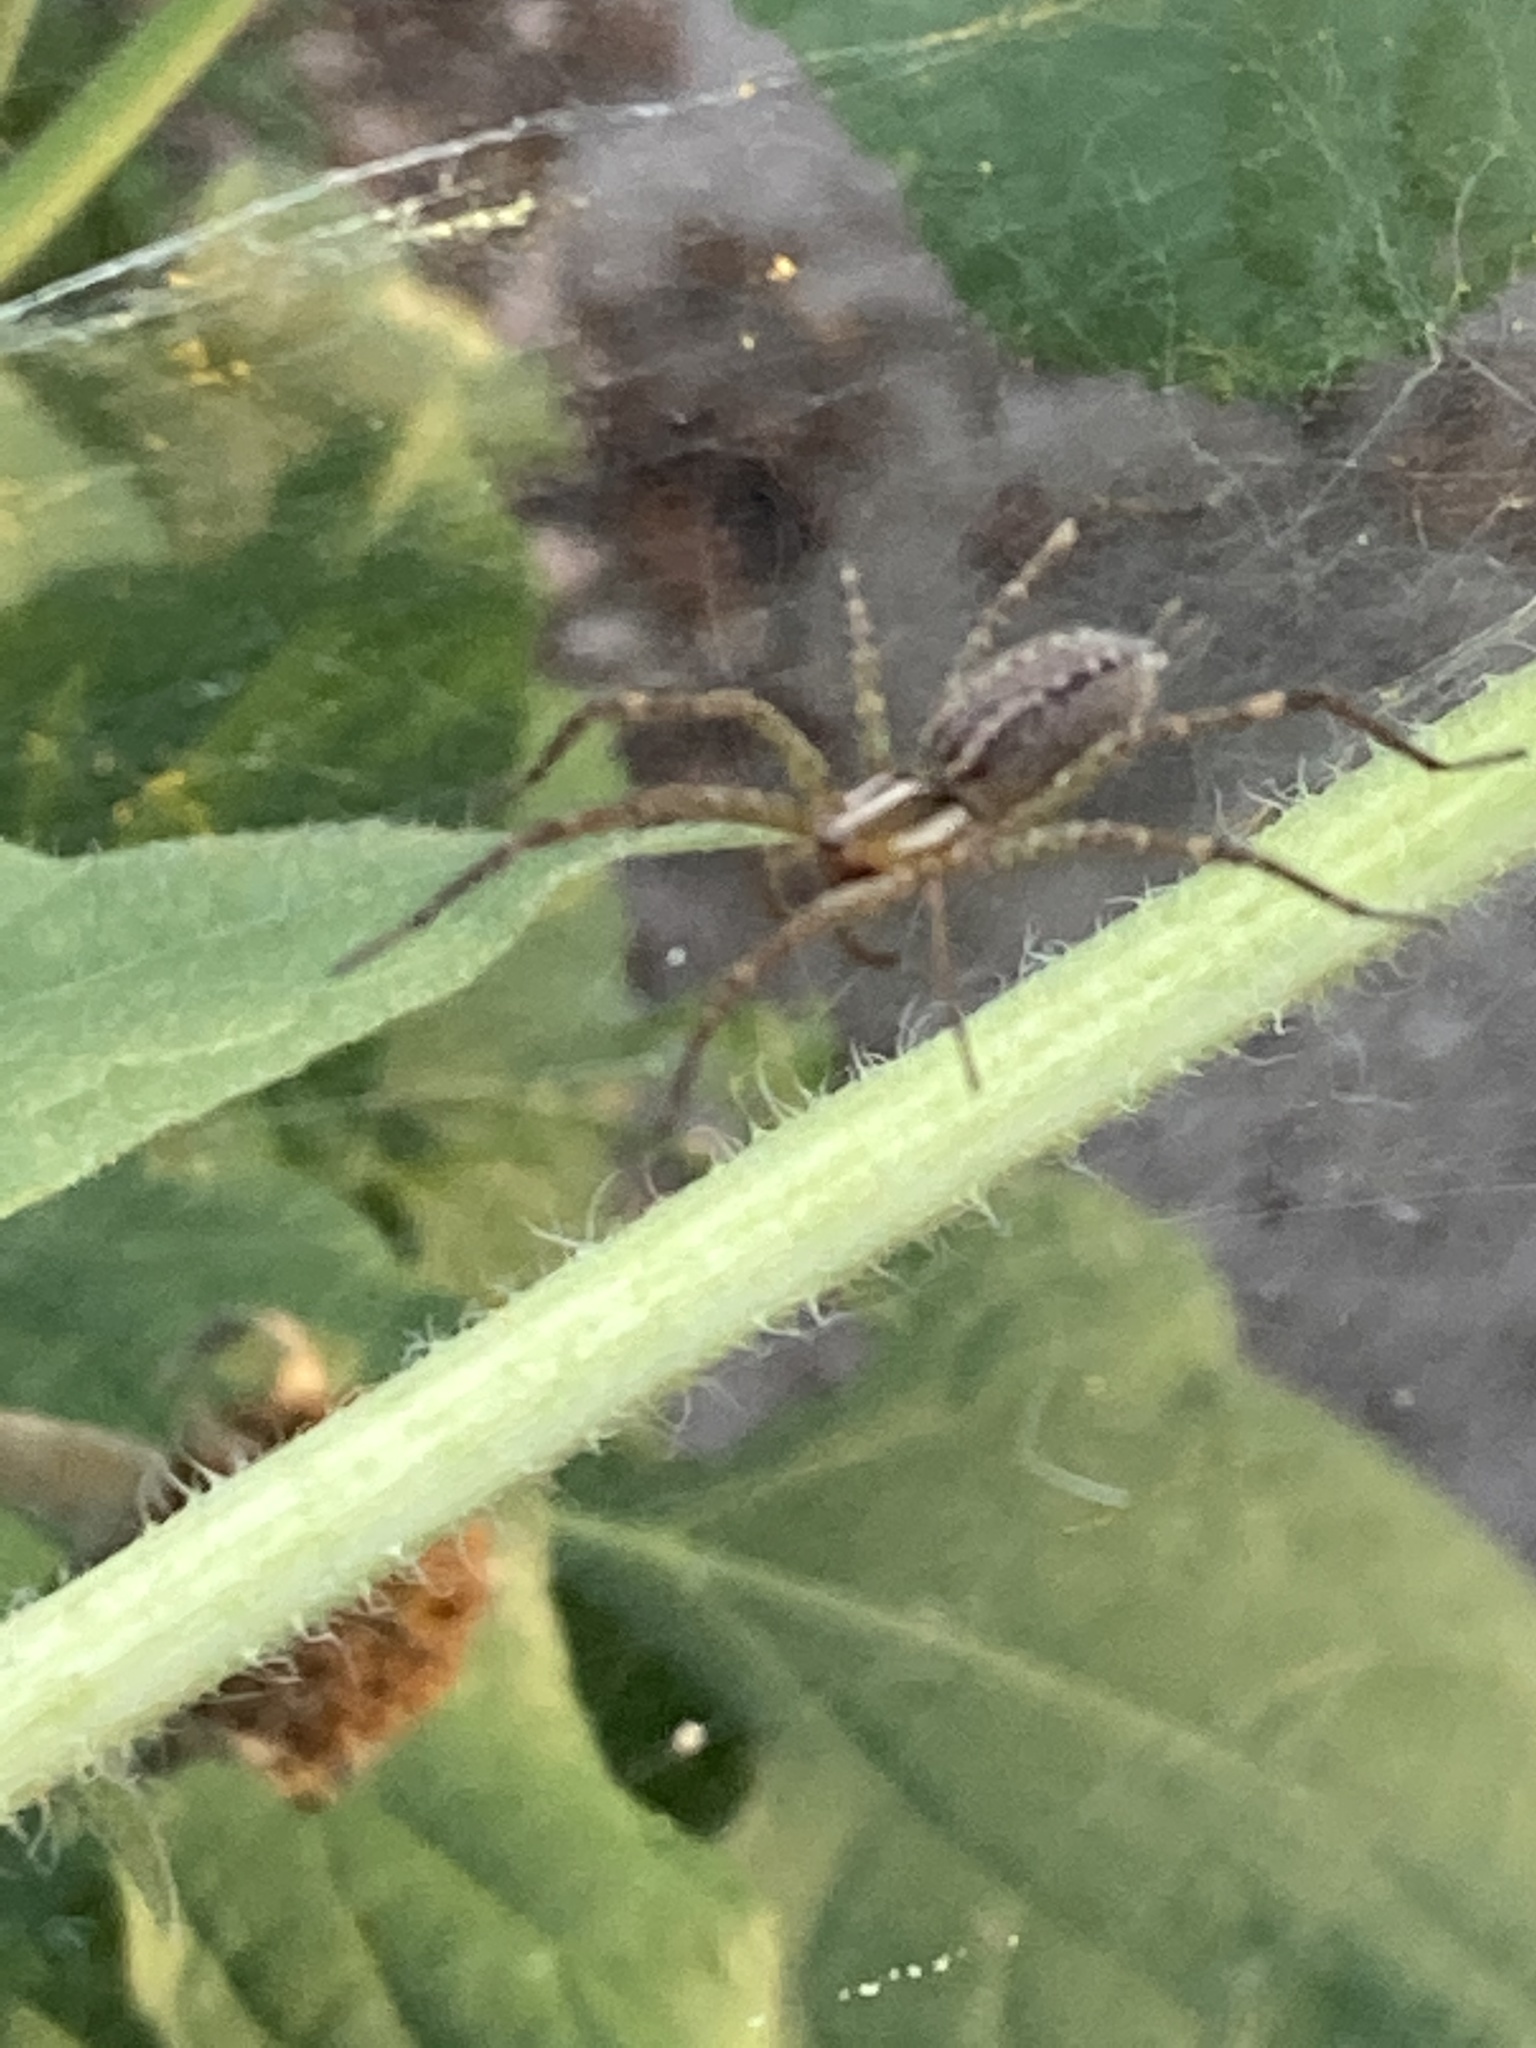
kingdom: Animalia
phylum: Arthropoda
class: Arachnida
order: Araneae
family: Agelenidae
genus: Agelenopsis
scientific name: Agelenopsis
